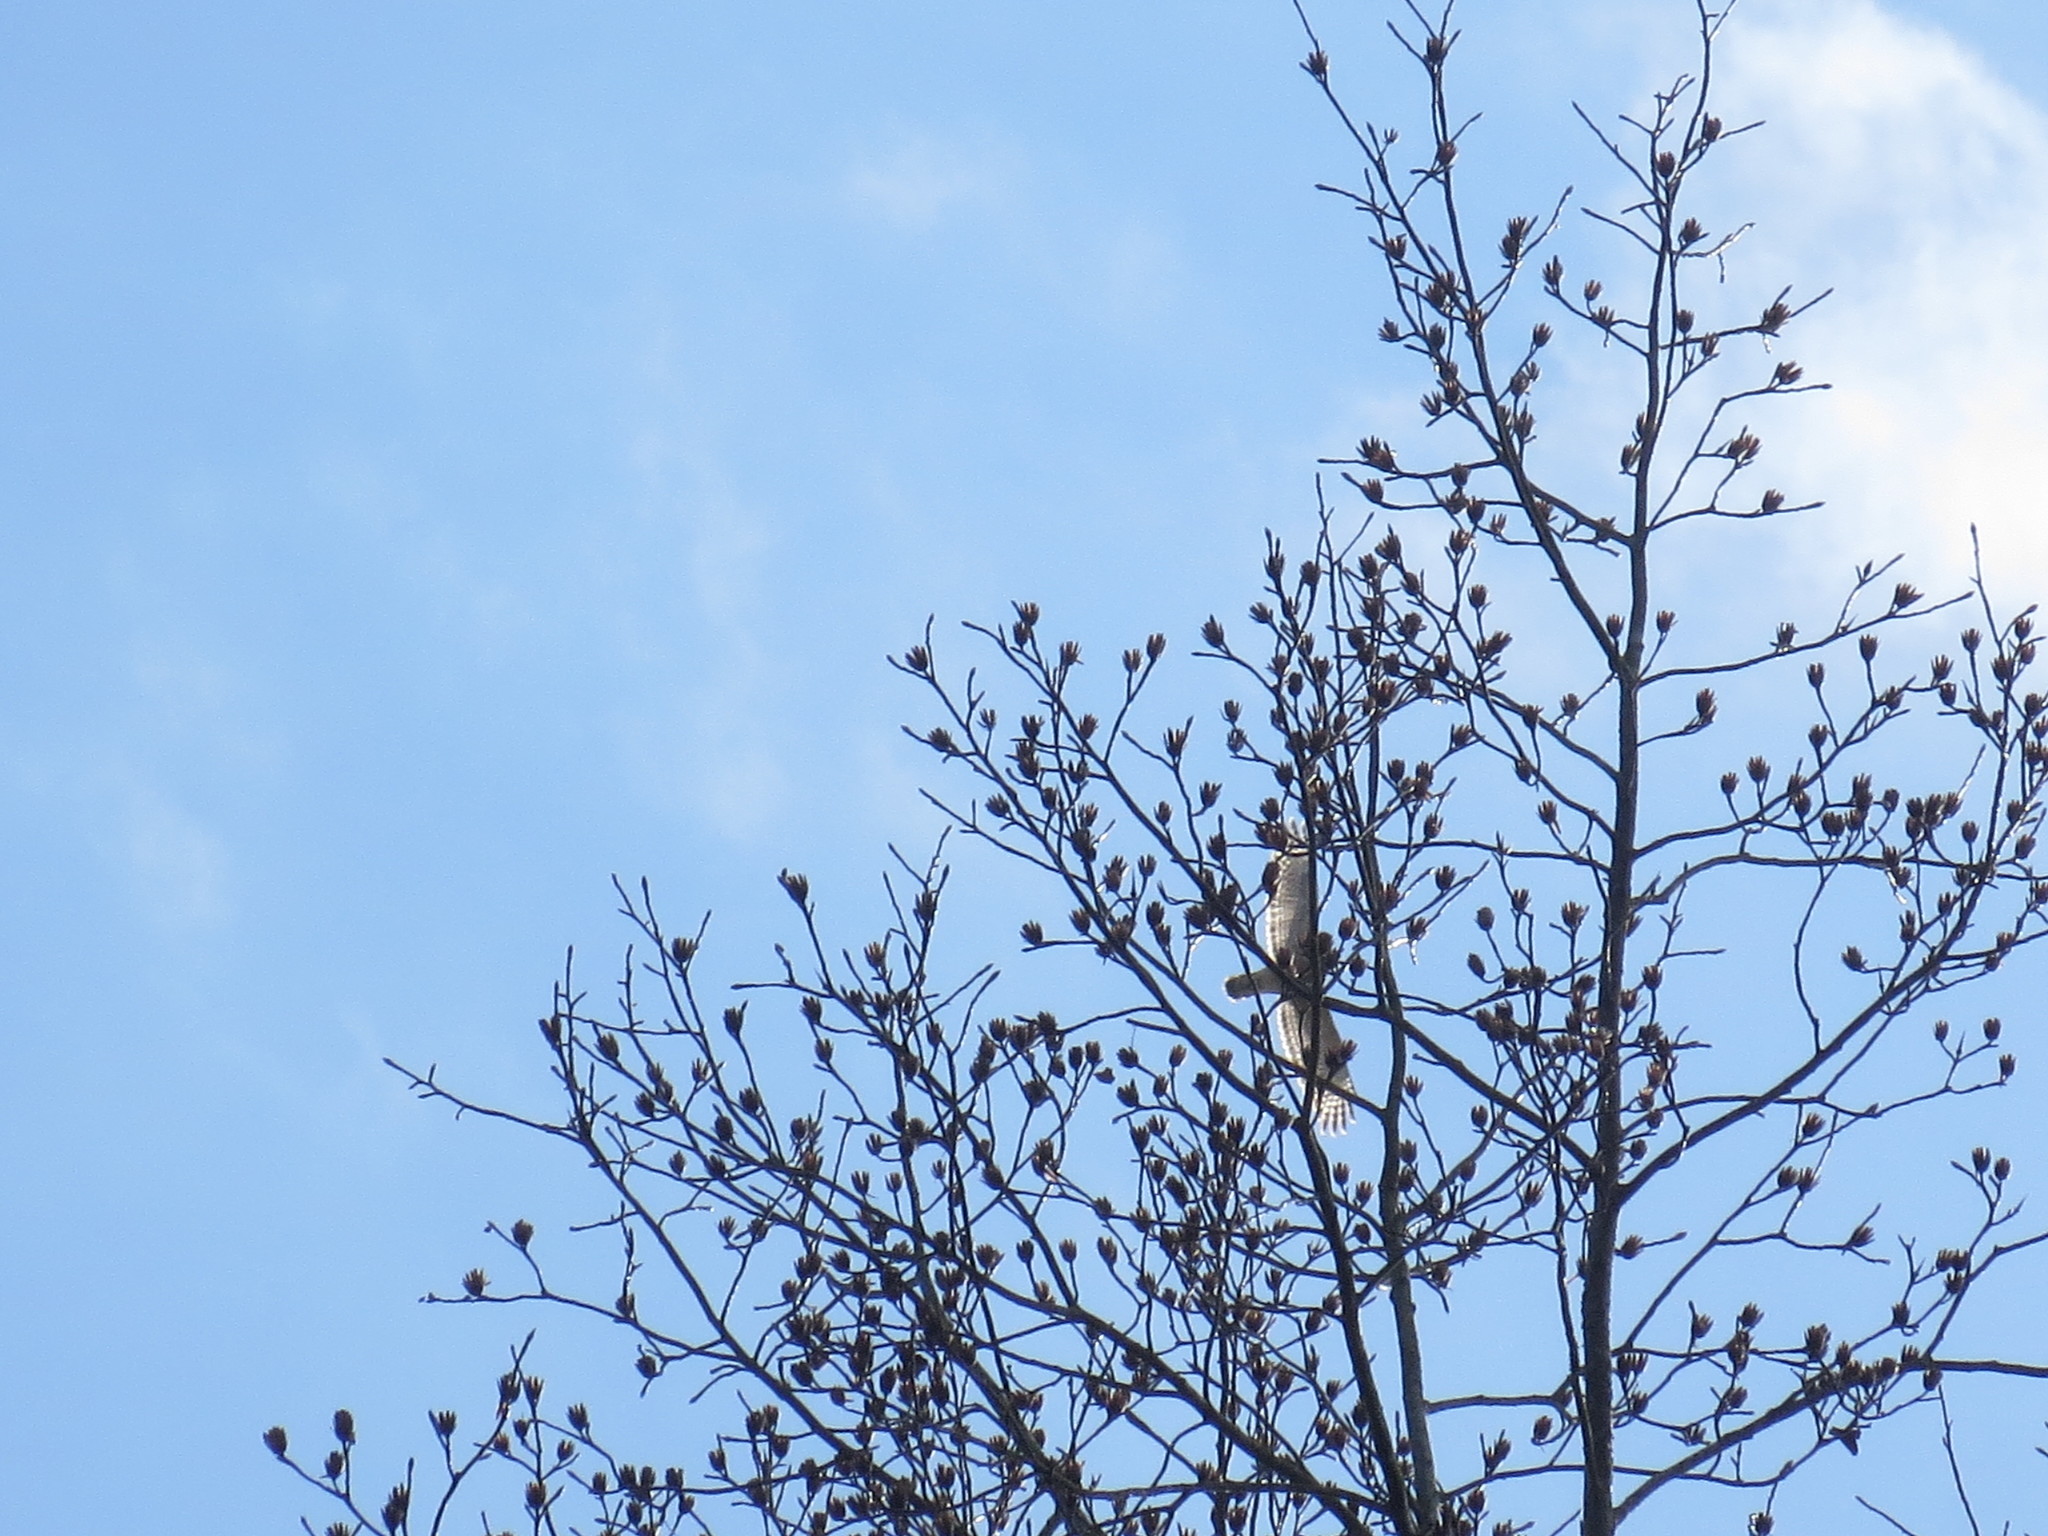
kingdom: Plantae
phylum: Tracheophyta
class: Magnoliopsida
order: Magnoliales
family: Magnoliaceae
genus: Liriodendron
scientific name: Liriodendron tulipifera
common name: Tulip tree
